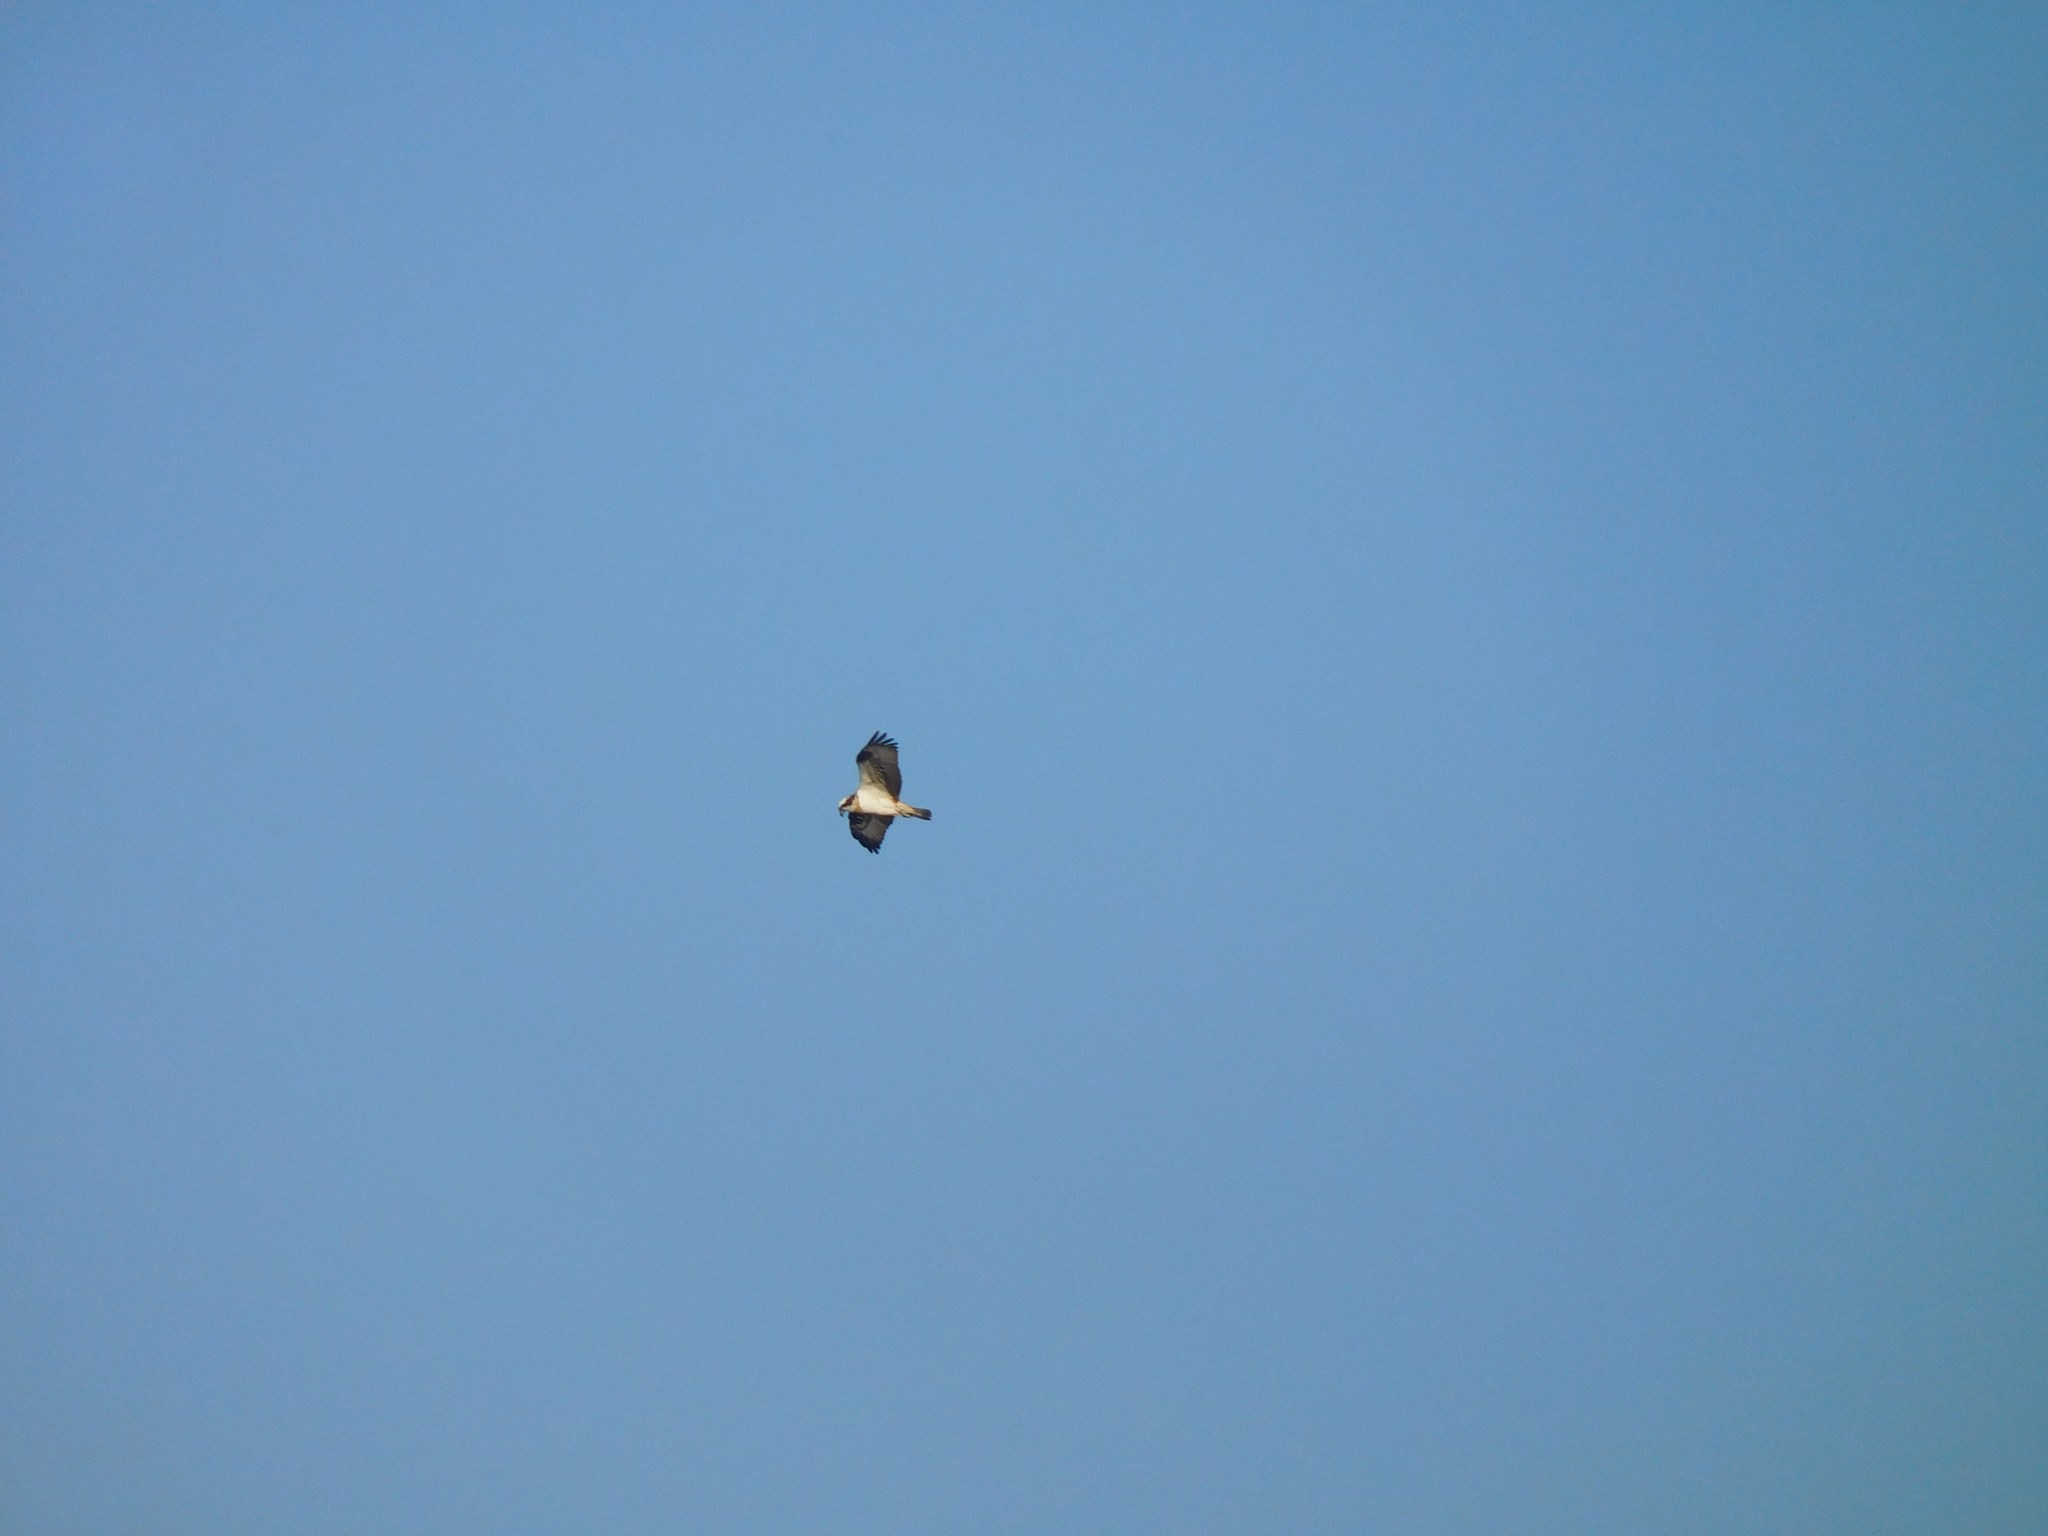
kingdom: Animalia
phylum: Chordata
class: Aves
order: Accipitriformes
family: Pandionidae
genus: Pandion
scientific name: Pandion haliaetus
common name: Osprey
